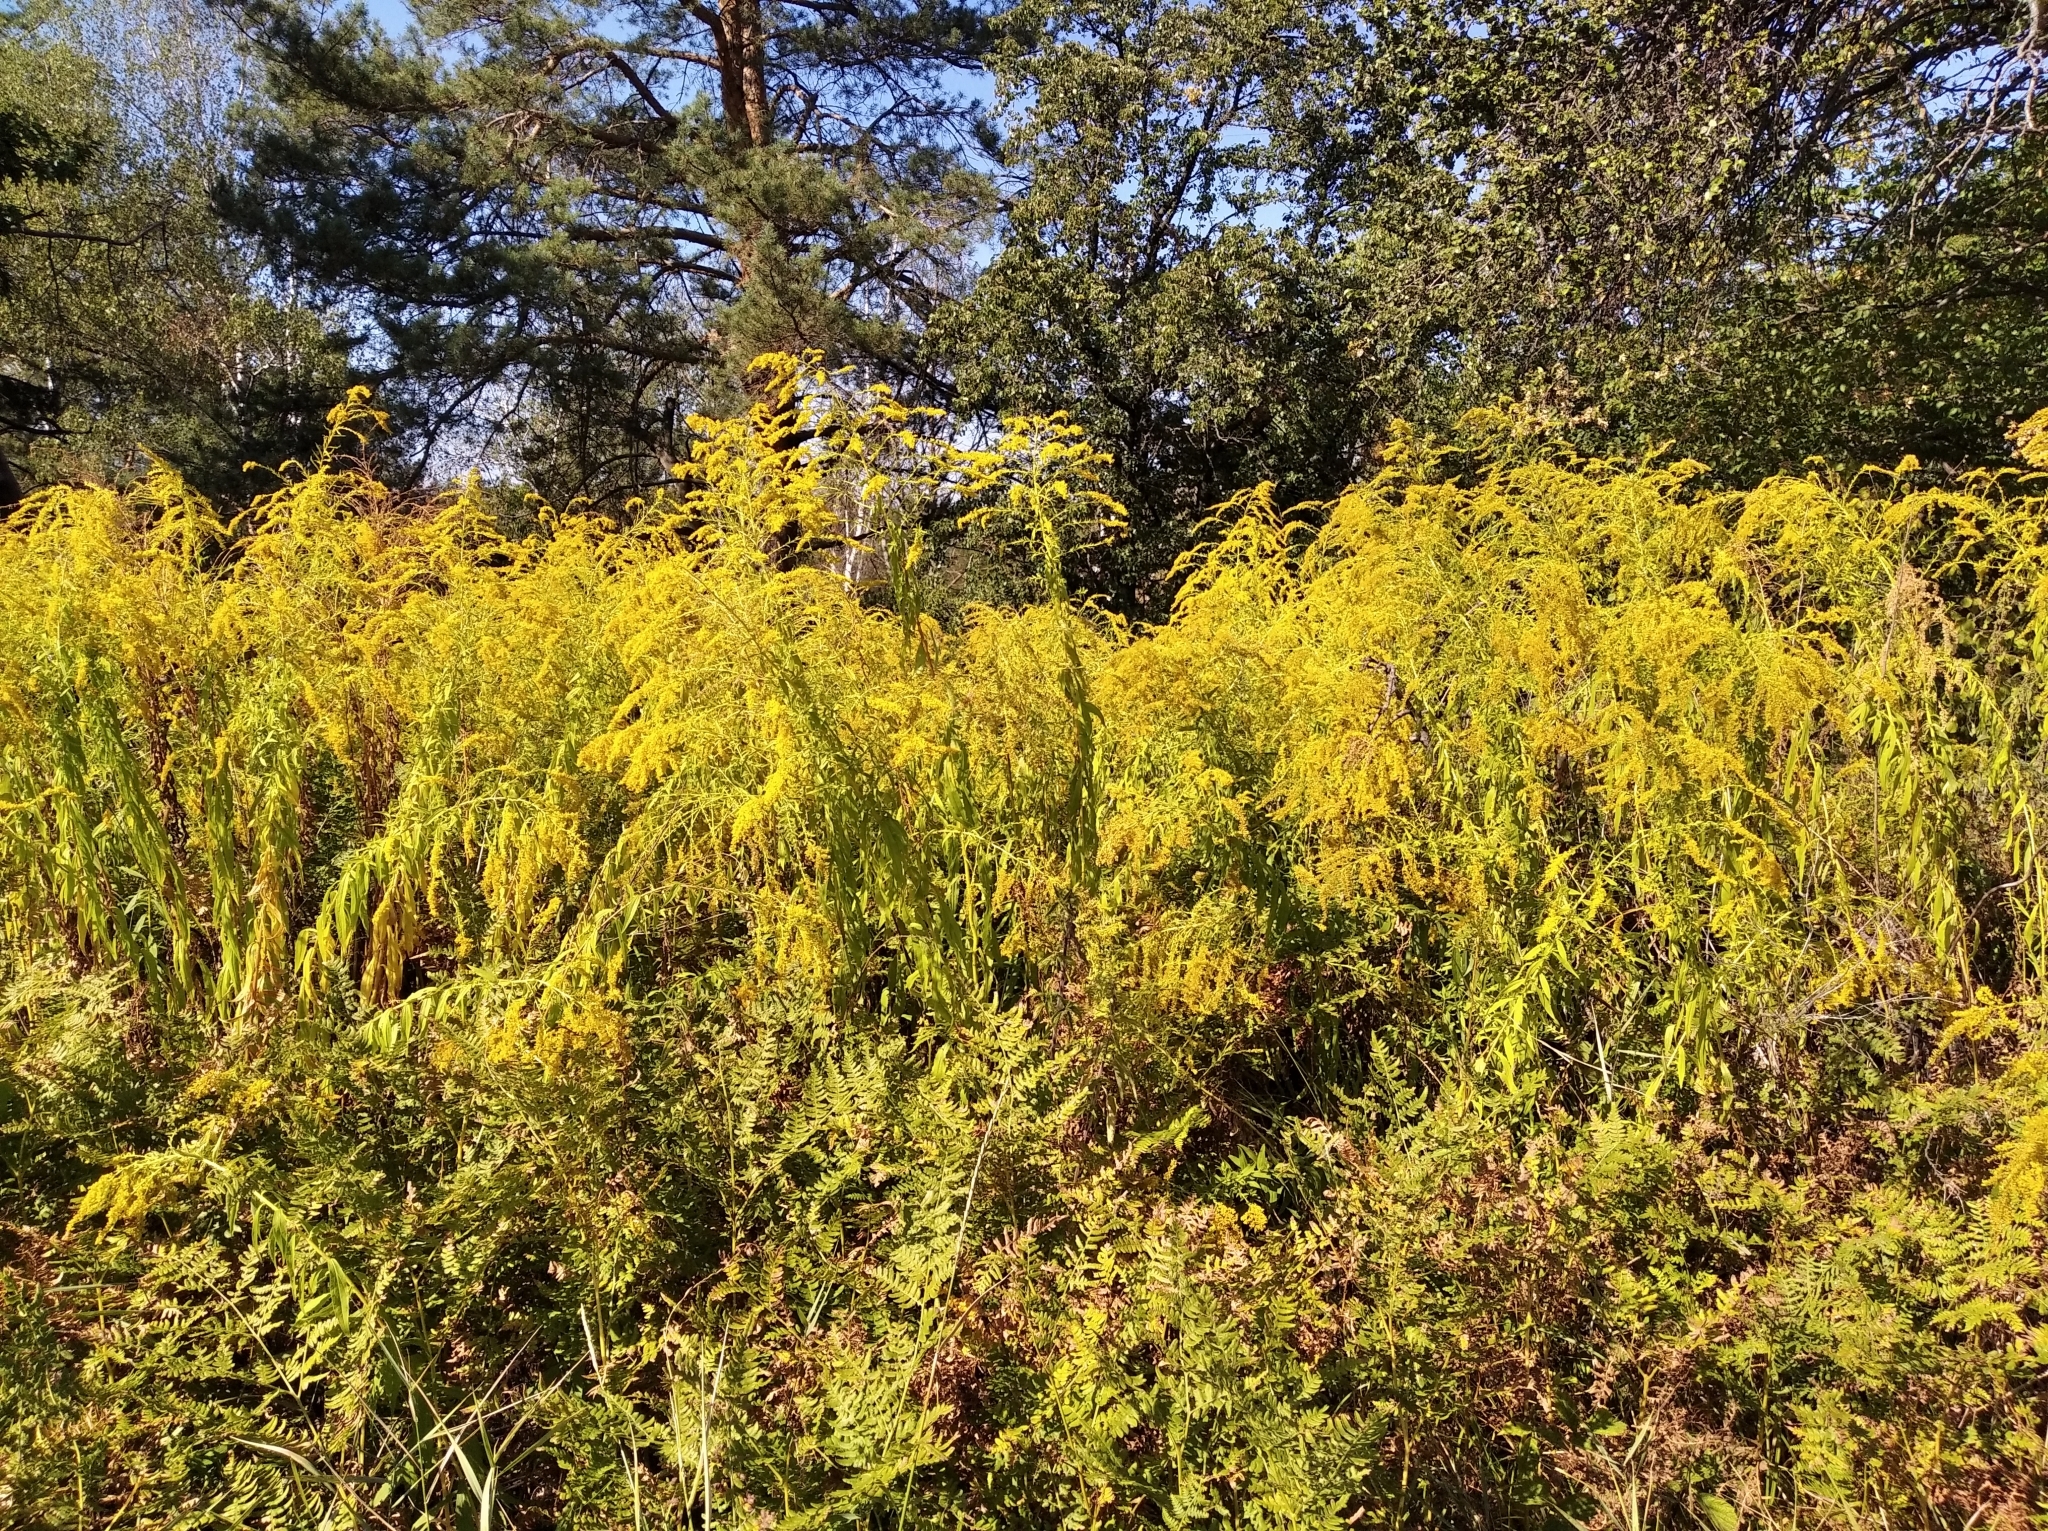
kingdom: Plantae
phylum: Tracheophyta
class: Magnoliopsida
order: Asterales
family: Asteraceae
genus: Solidago
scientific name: Solidago canadensis
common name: Canada goldenrod
